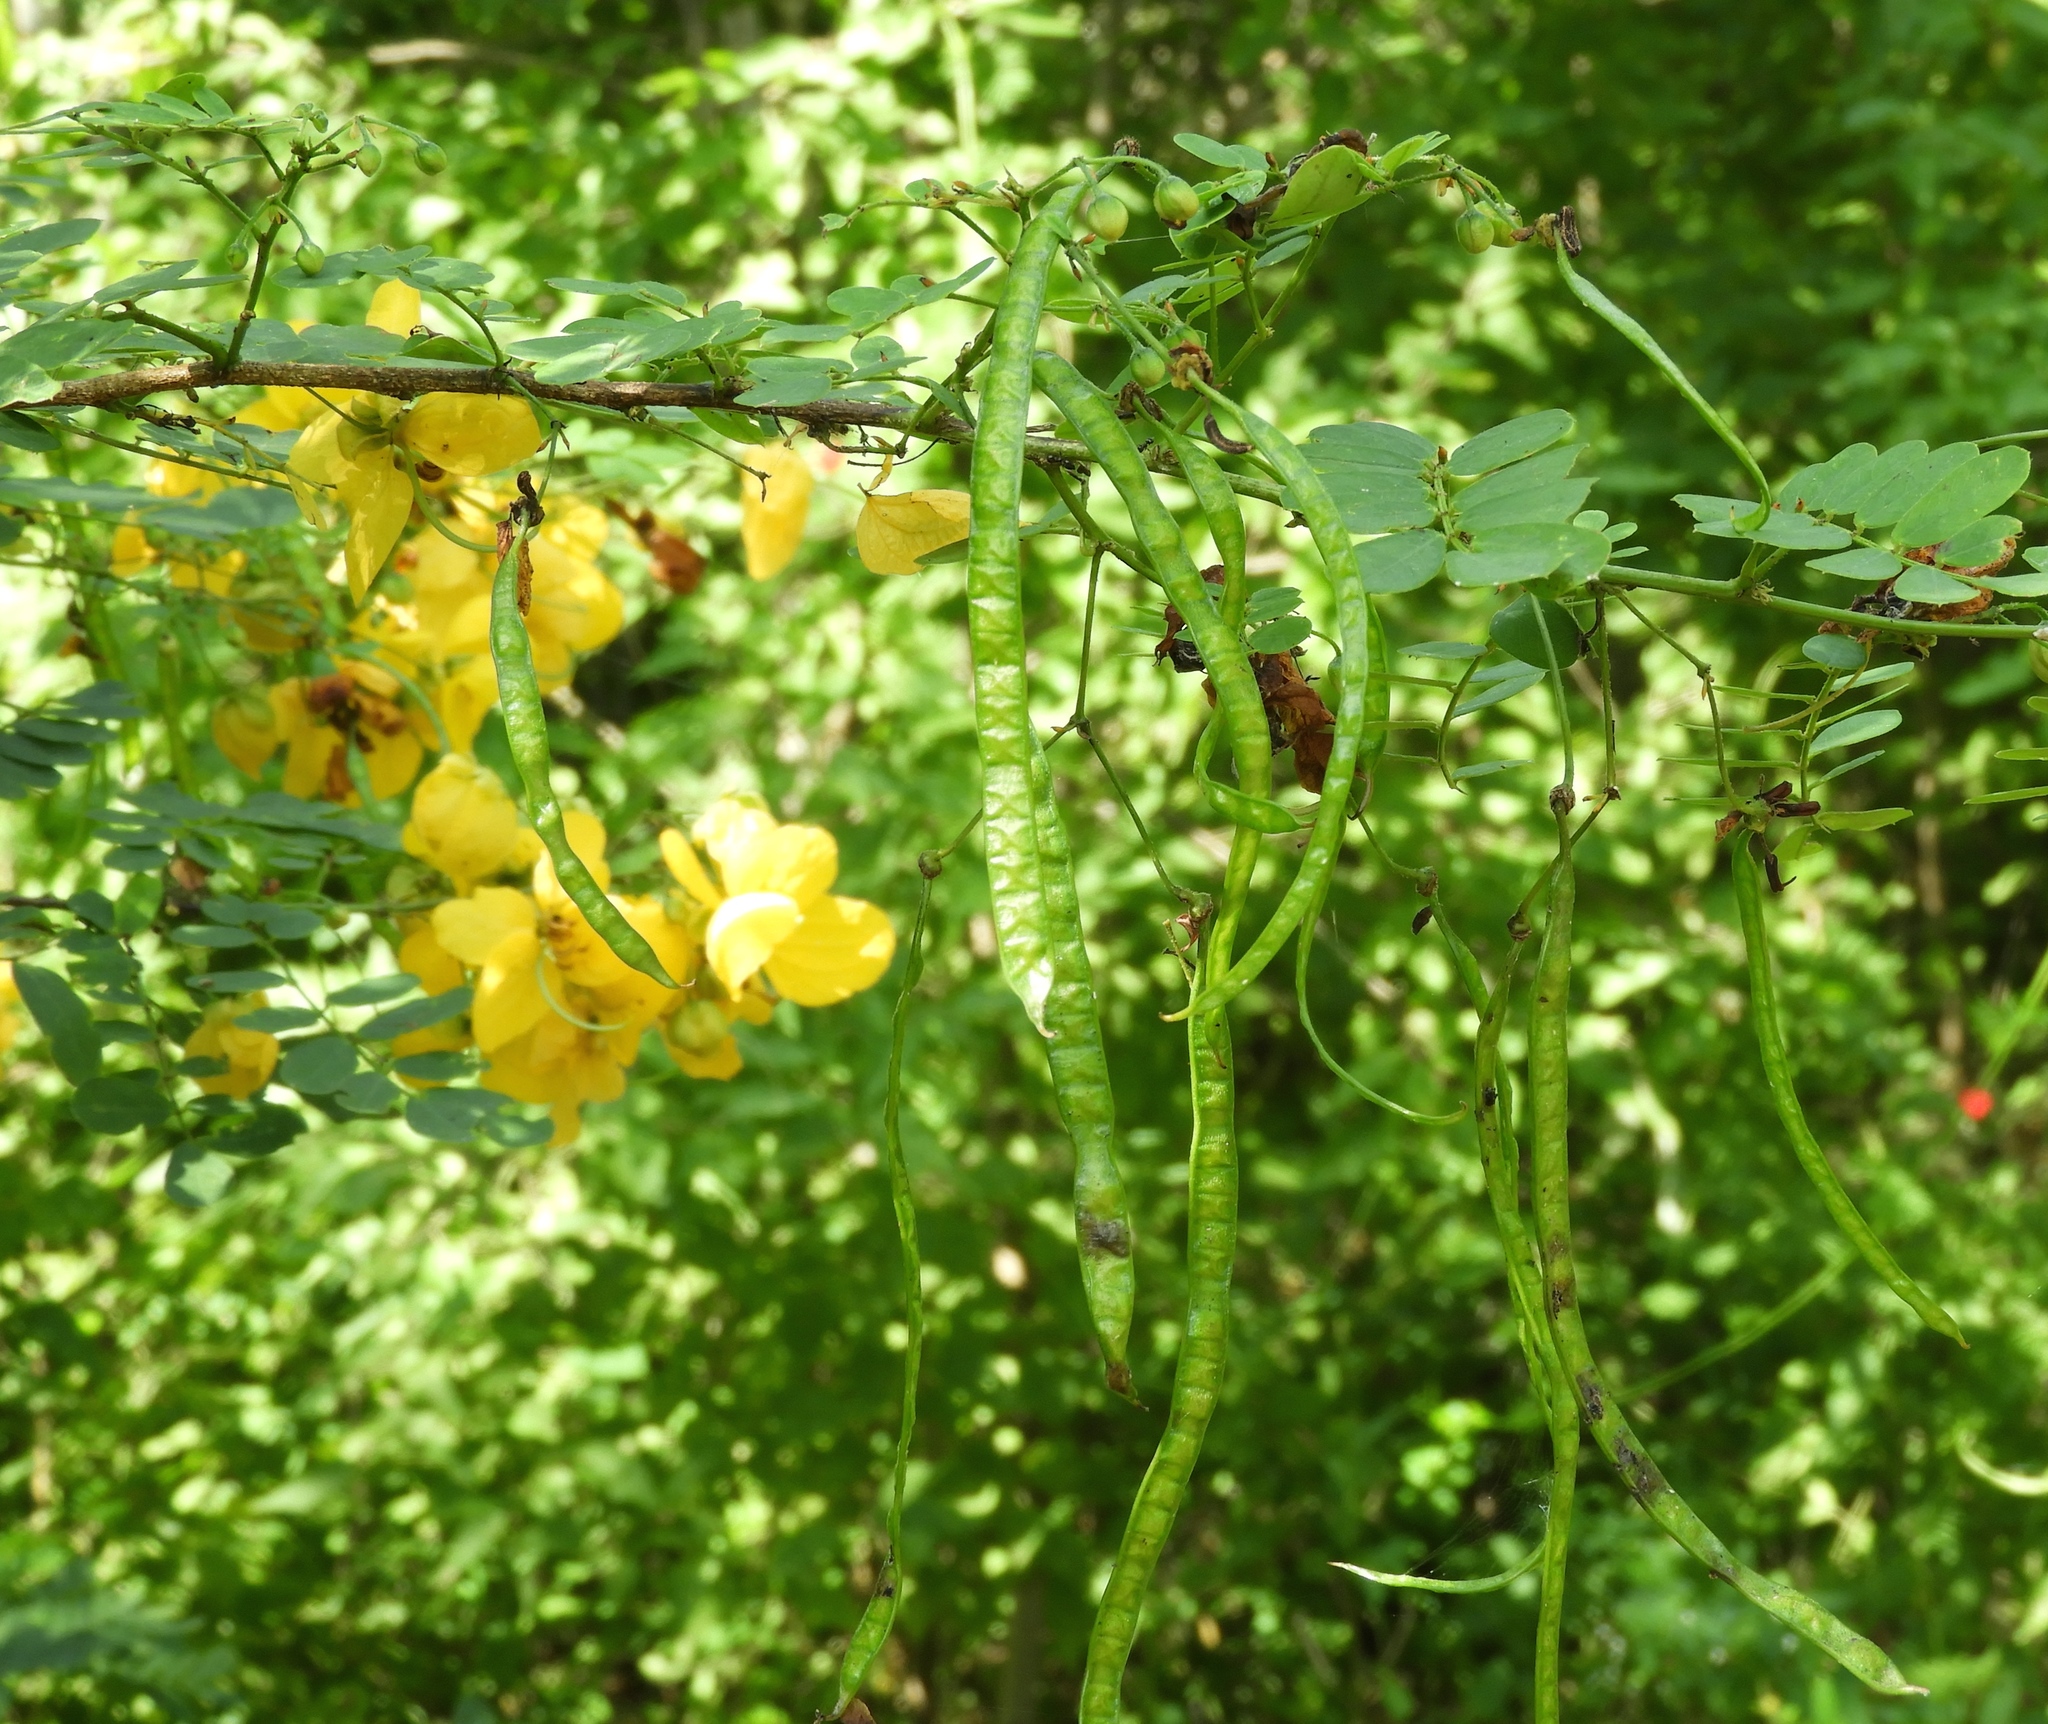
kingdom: Plantae
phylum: Tracheophyta
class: Magnoliopsida
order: Fabales
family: Fabaceae
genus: Senna
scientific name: Senna pallida
